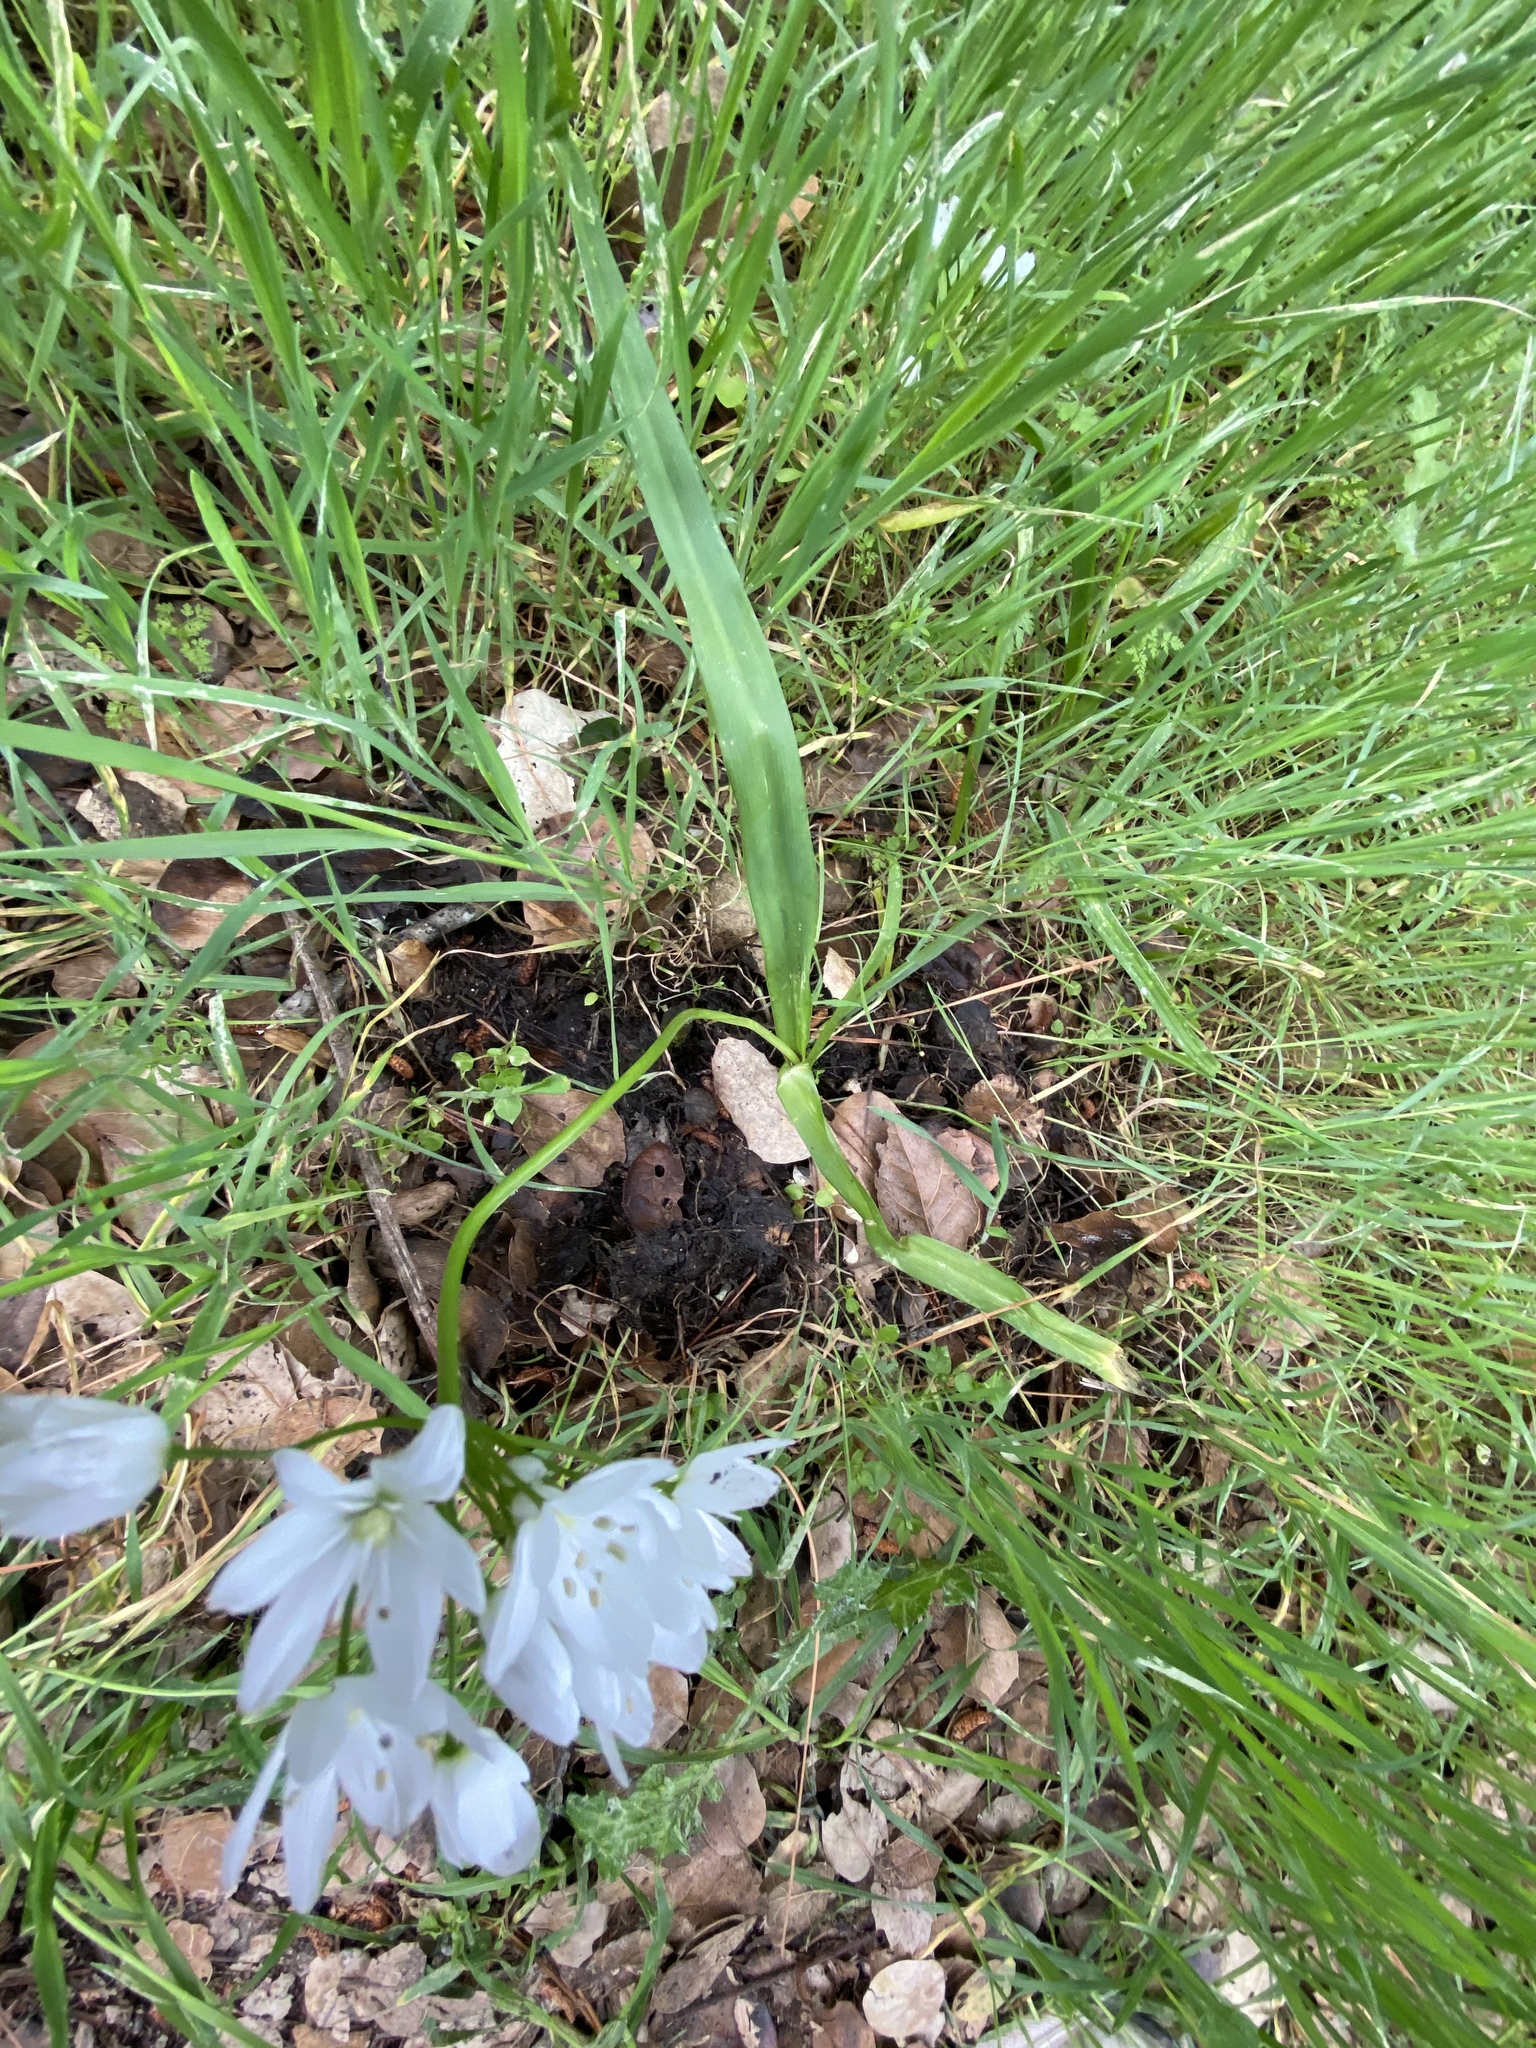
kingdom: Plantae
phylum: Tracheophyta
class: Liliopsida
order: Asparagales
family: Amaryllidaceae
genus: Allium
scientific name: Allium neapolitanum
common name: Neapolitan garlic
